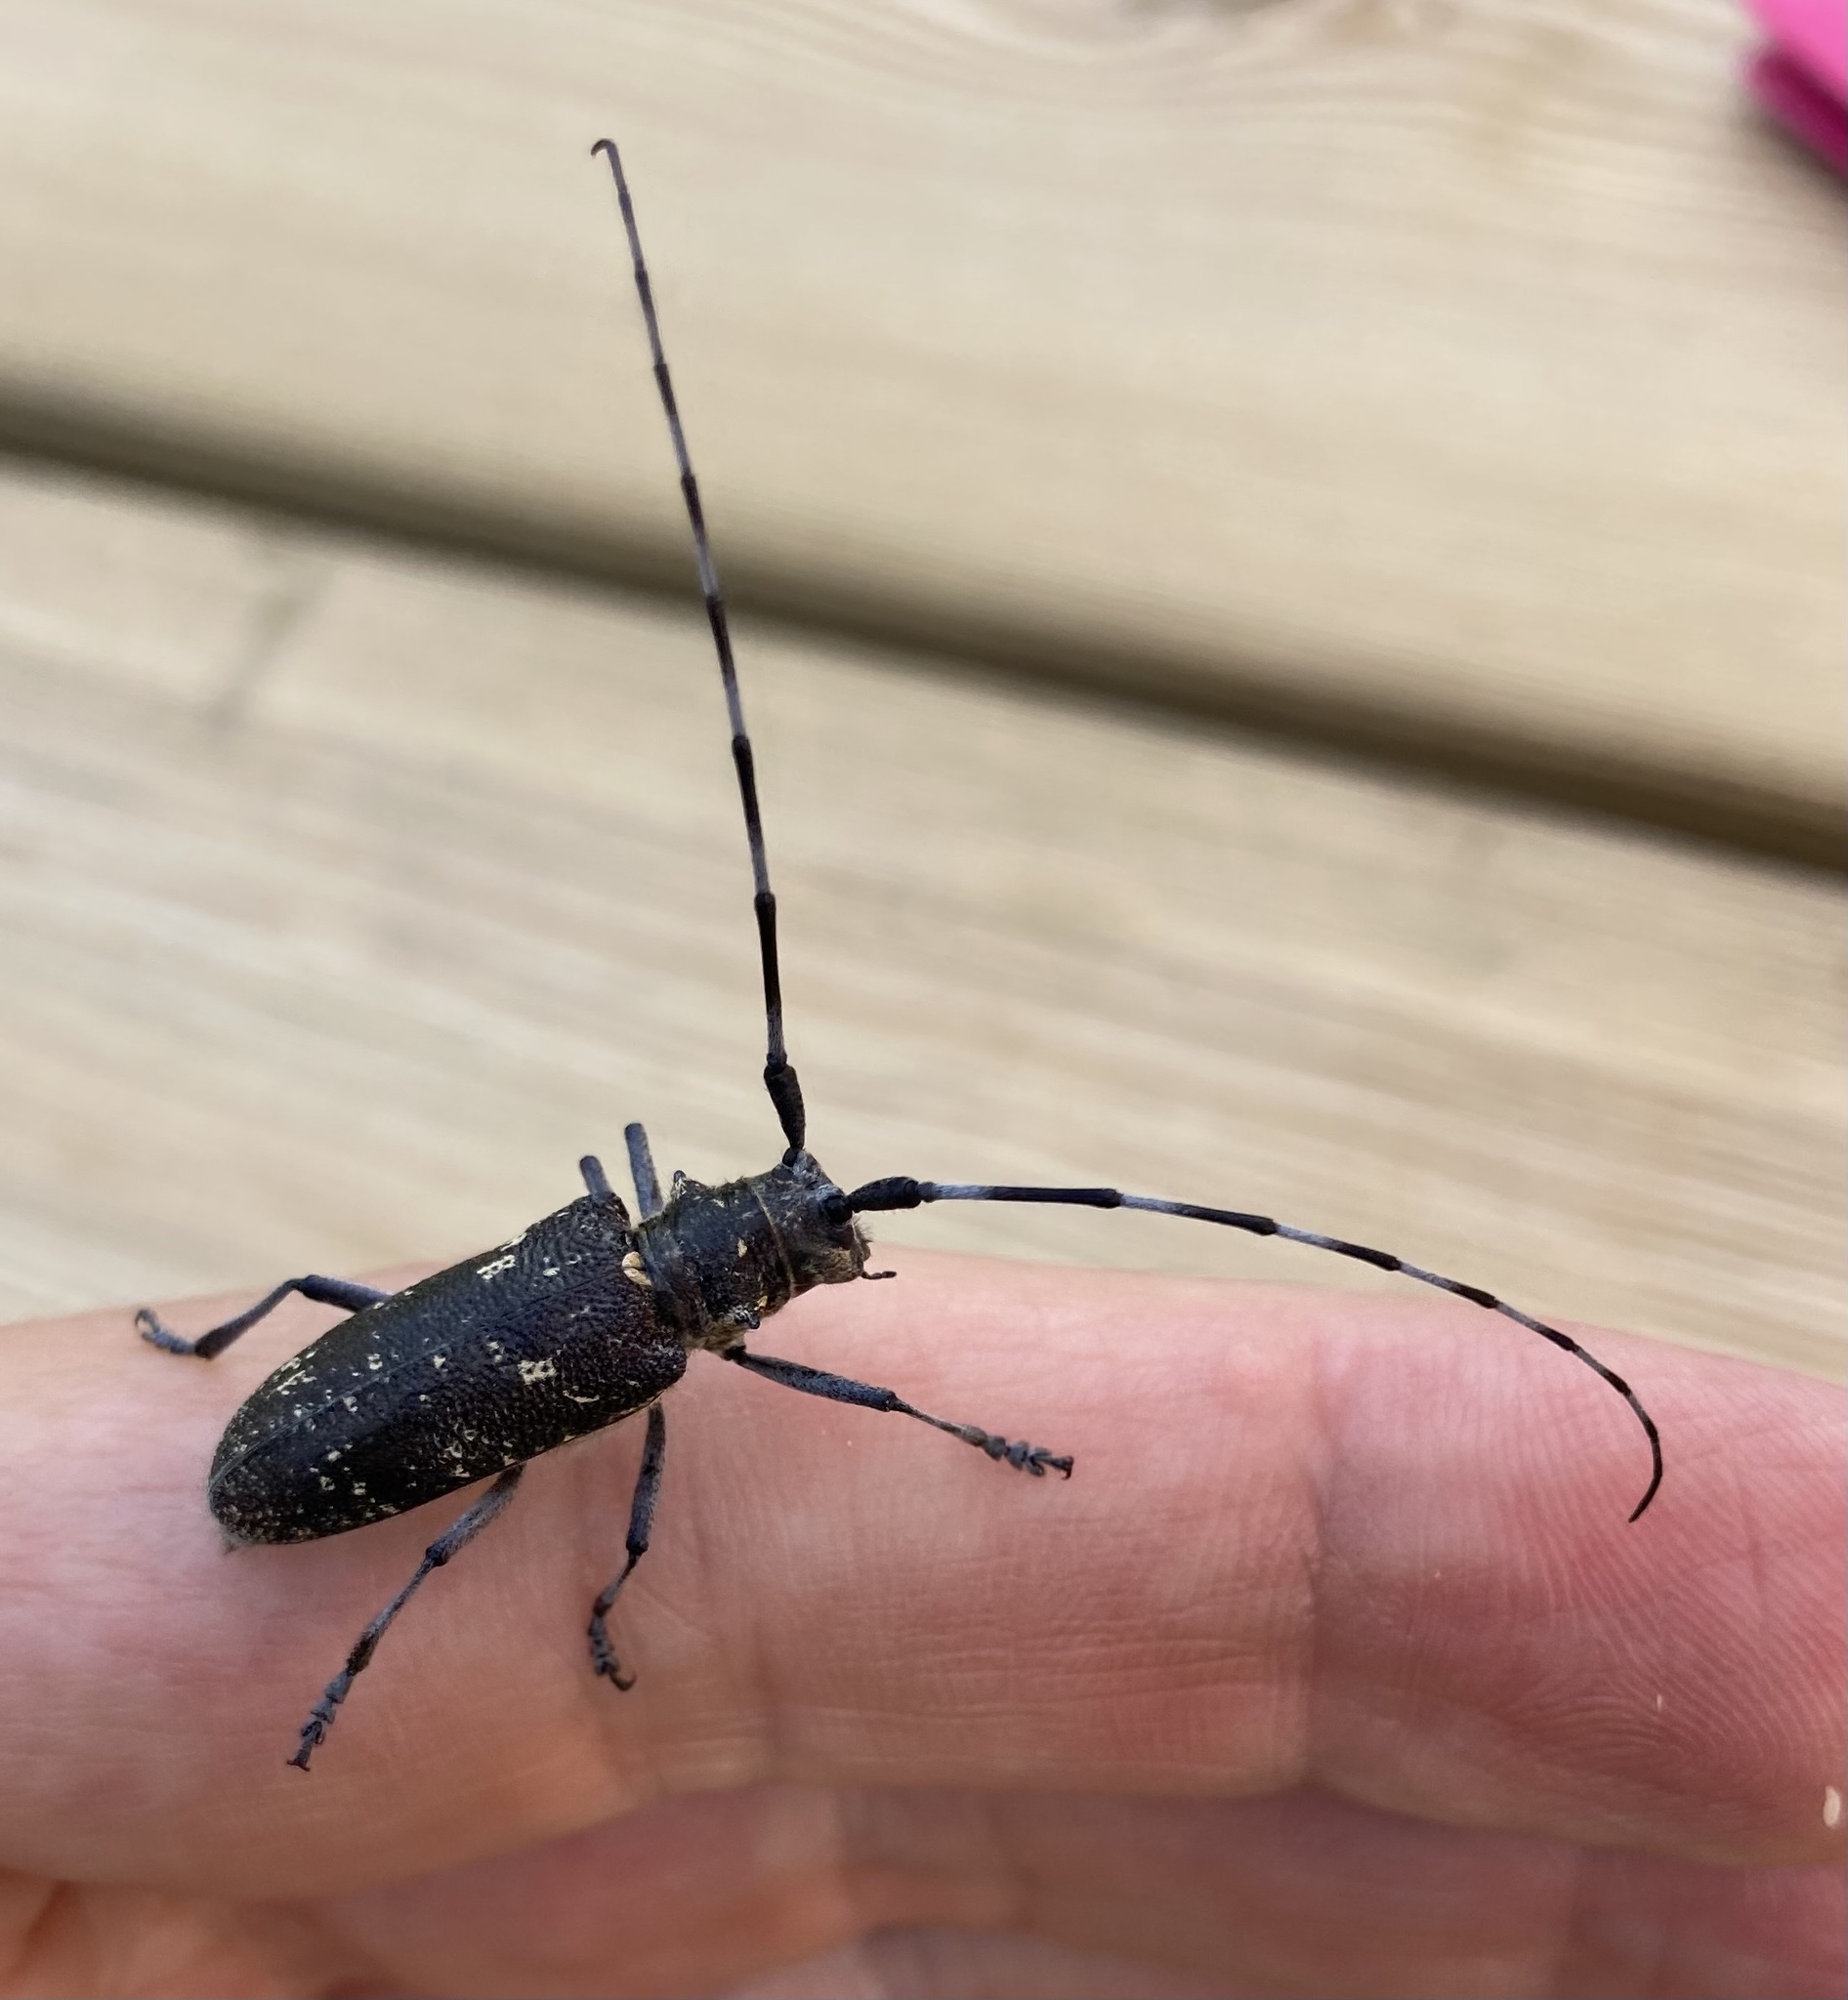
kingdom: Animalia
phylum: Arthropoda
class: Insecta
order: Coleoptera
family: Cerambycidae
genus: Monochamus
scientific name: Monochamus sutor
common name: Pine sawyer
